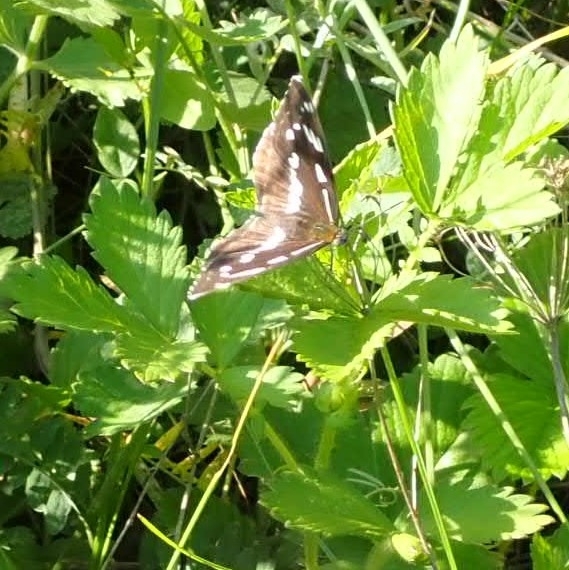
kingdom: Animalia
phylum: Arthropoda
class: Insecta
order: Lepidoptera
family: Nymphalidae
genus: Limenitis
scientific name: Limenitis helmanni
